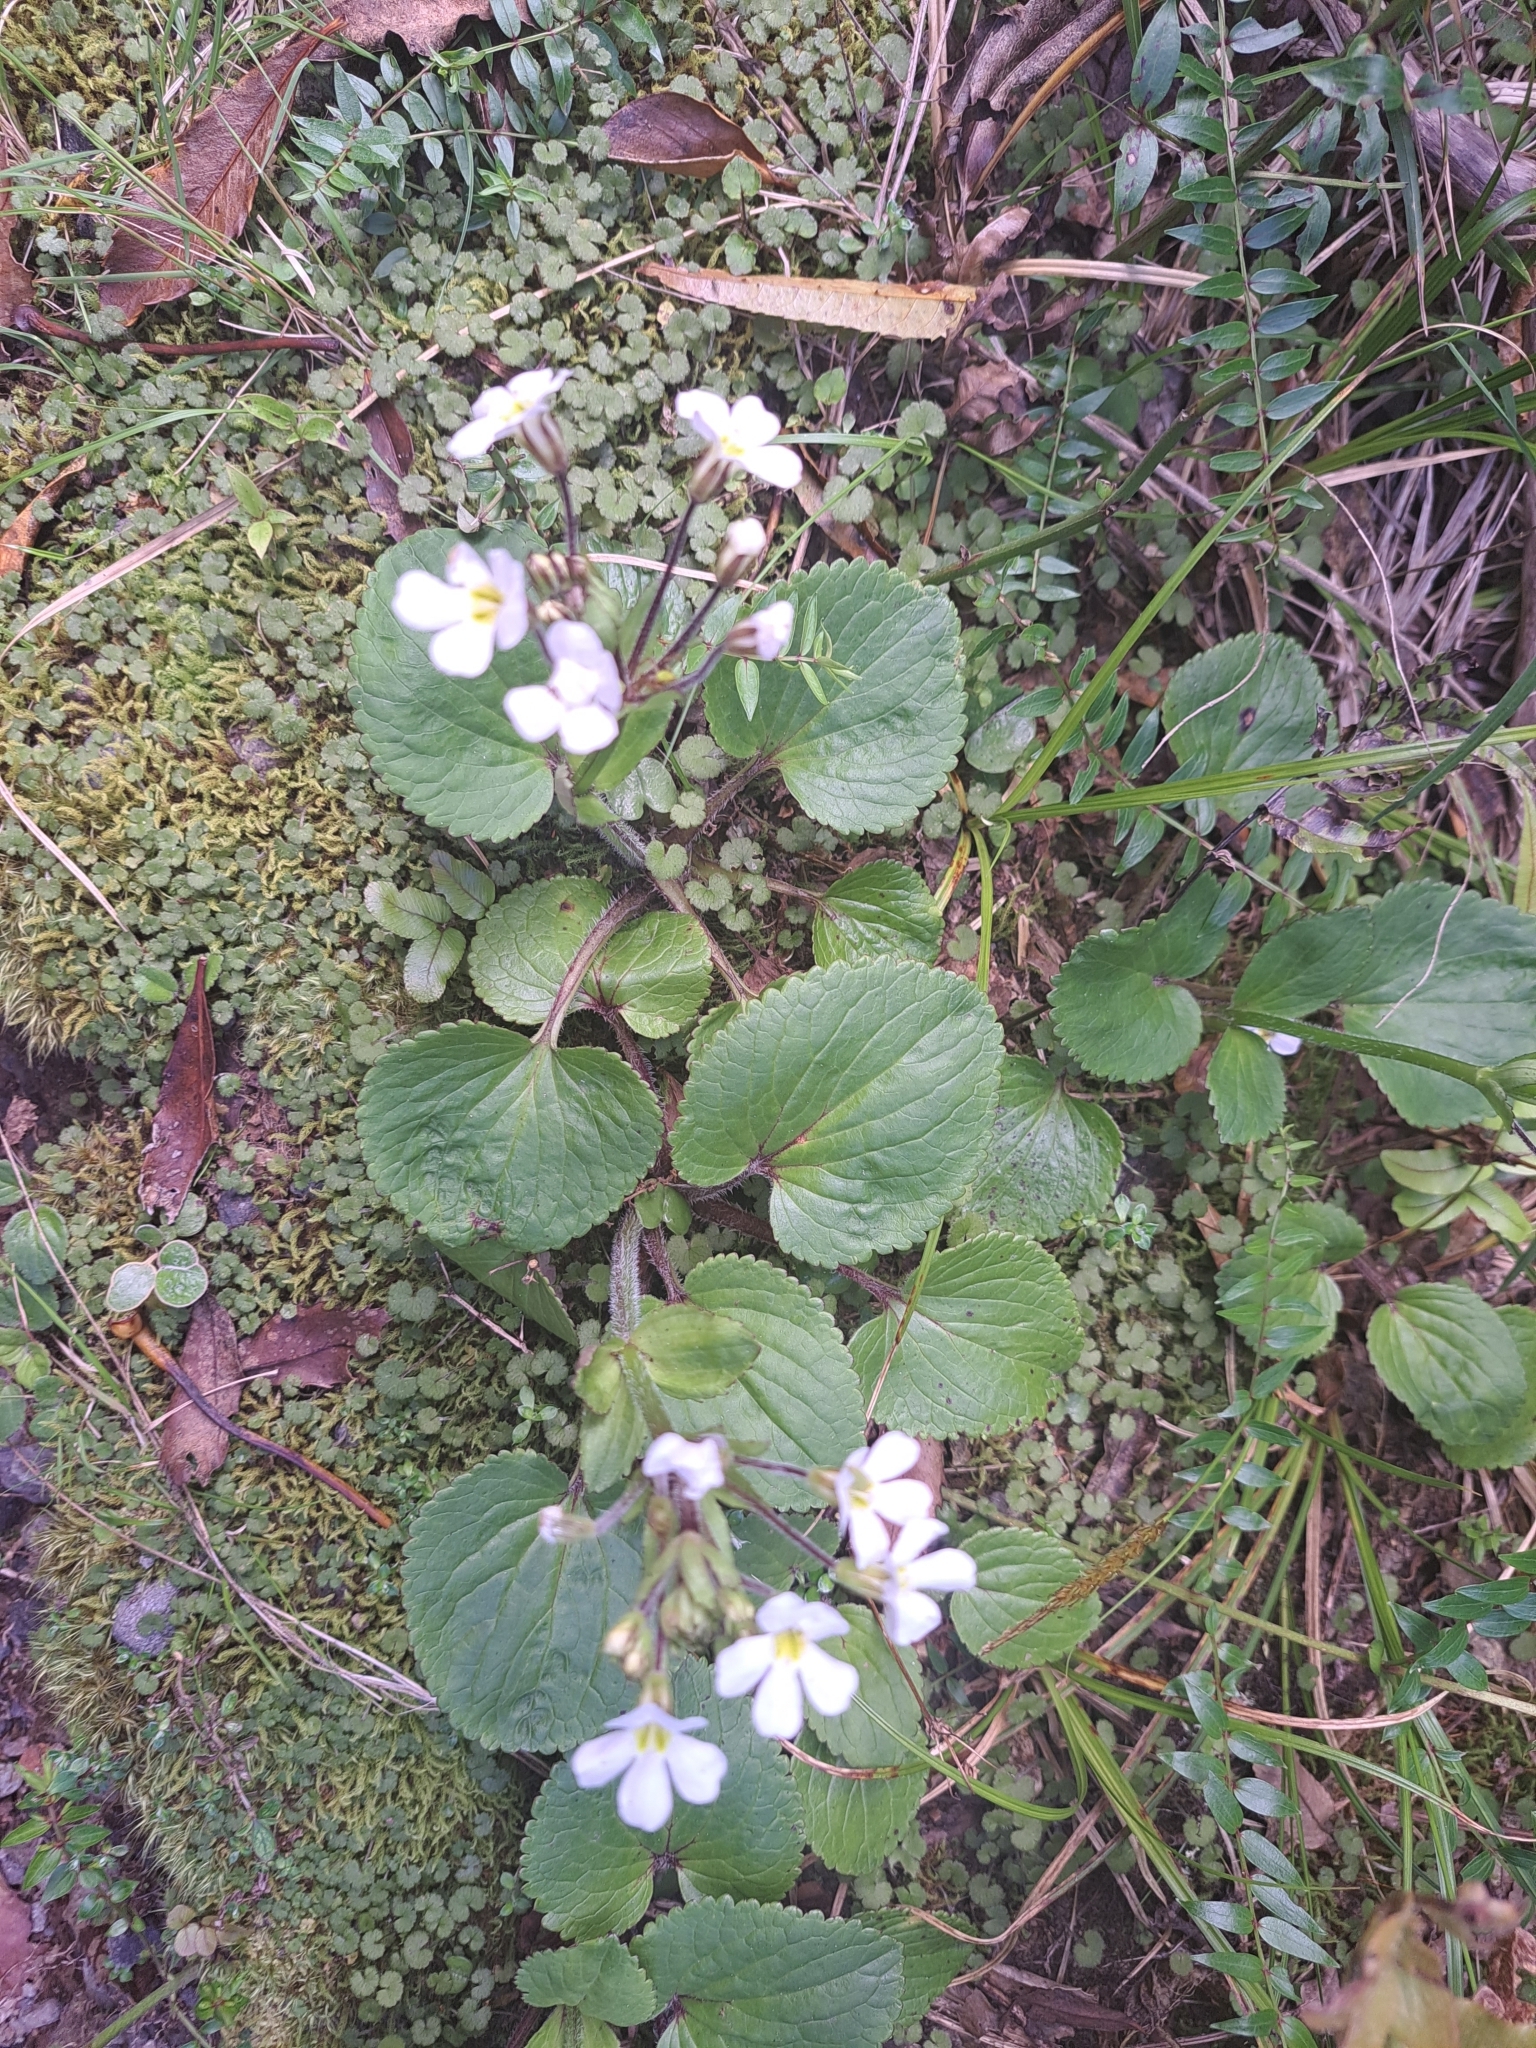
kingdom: Plantae
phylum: Tracheophyta
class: Magnoliopsida
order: Lamiales
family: Plantaginaceae
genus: Ourisia
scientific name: Ourisia macrophylla
